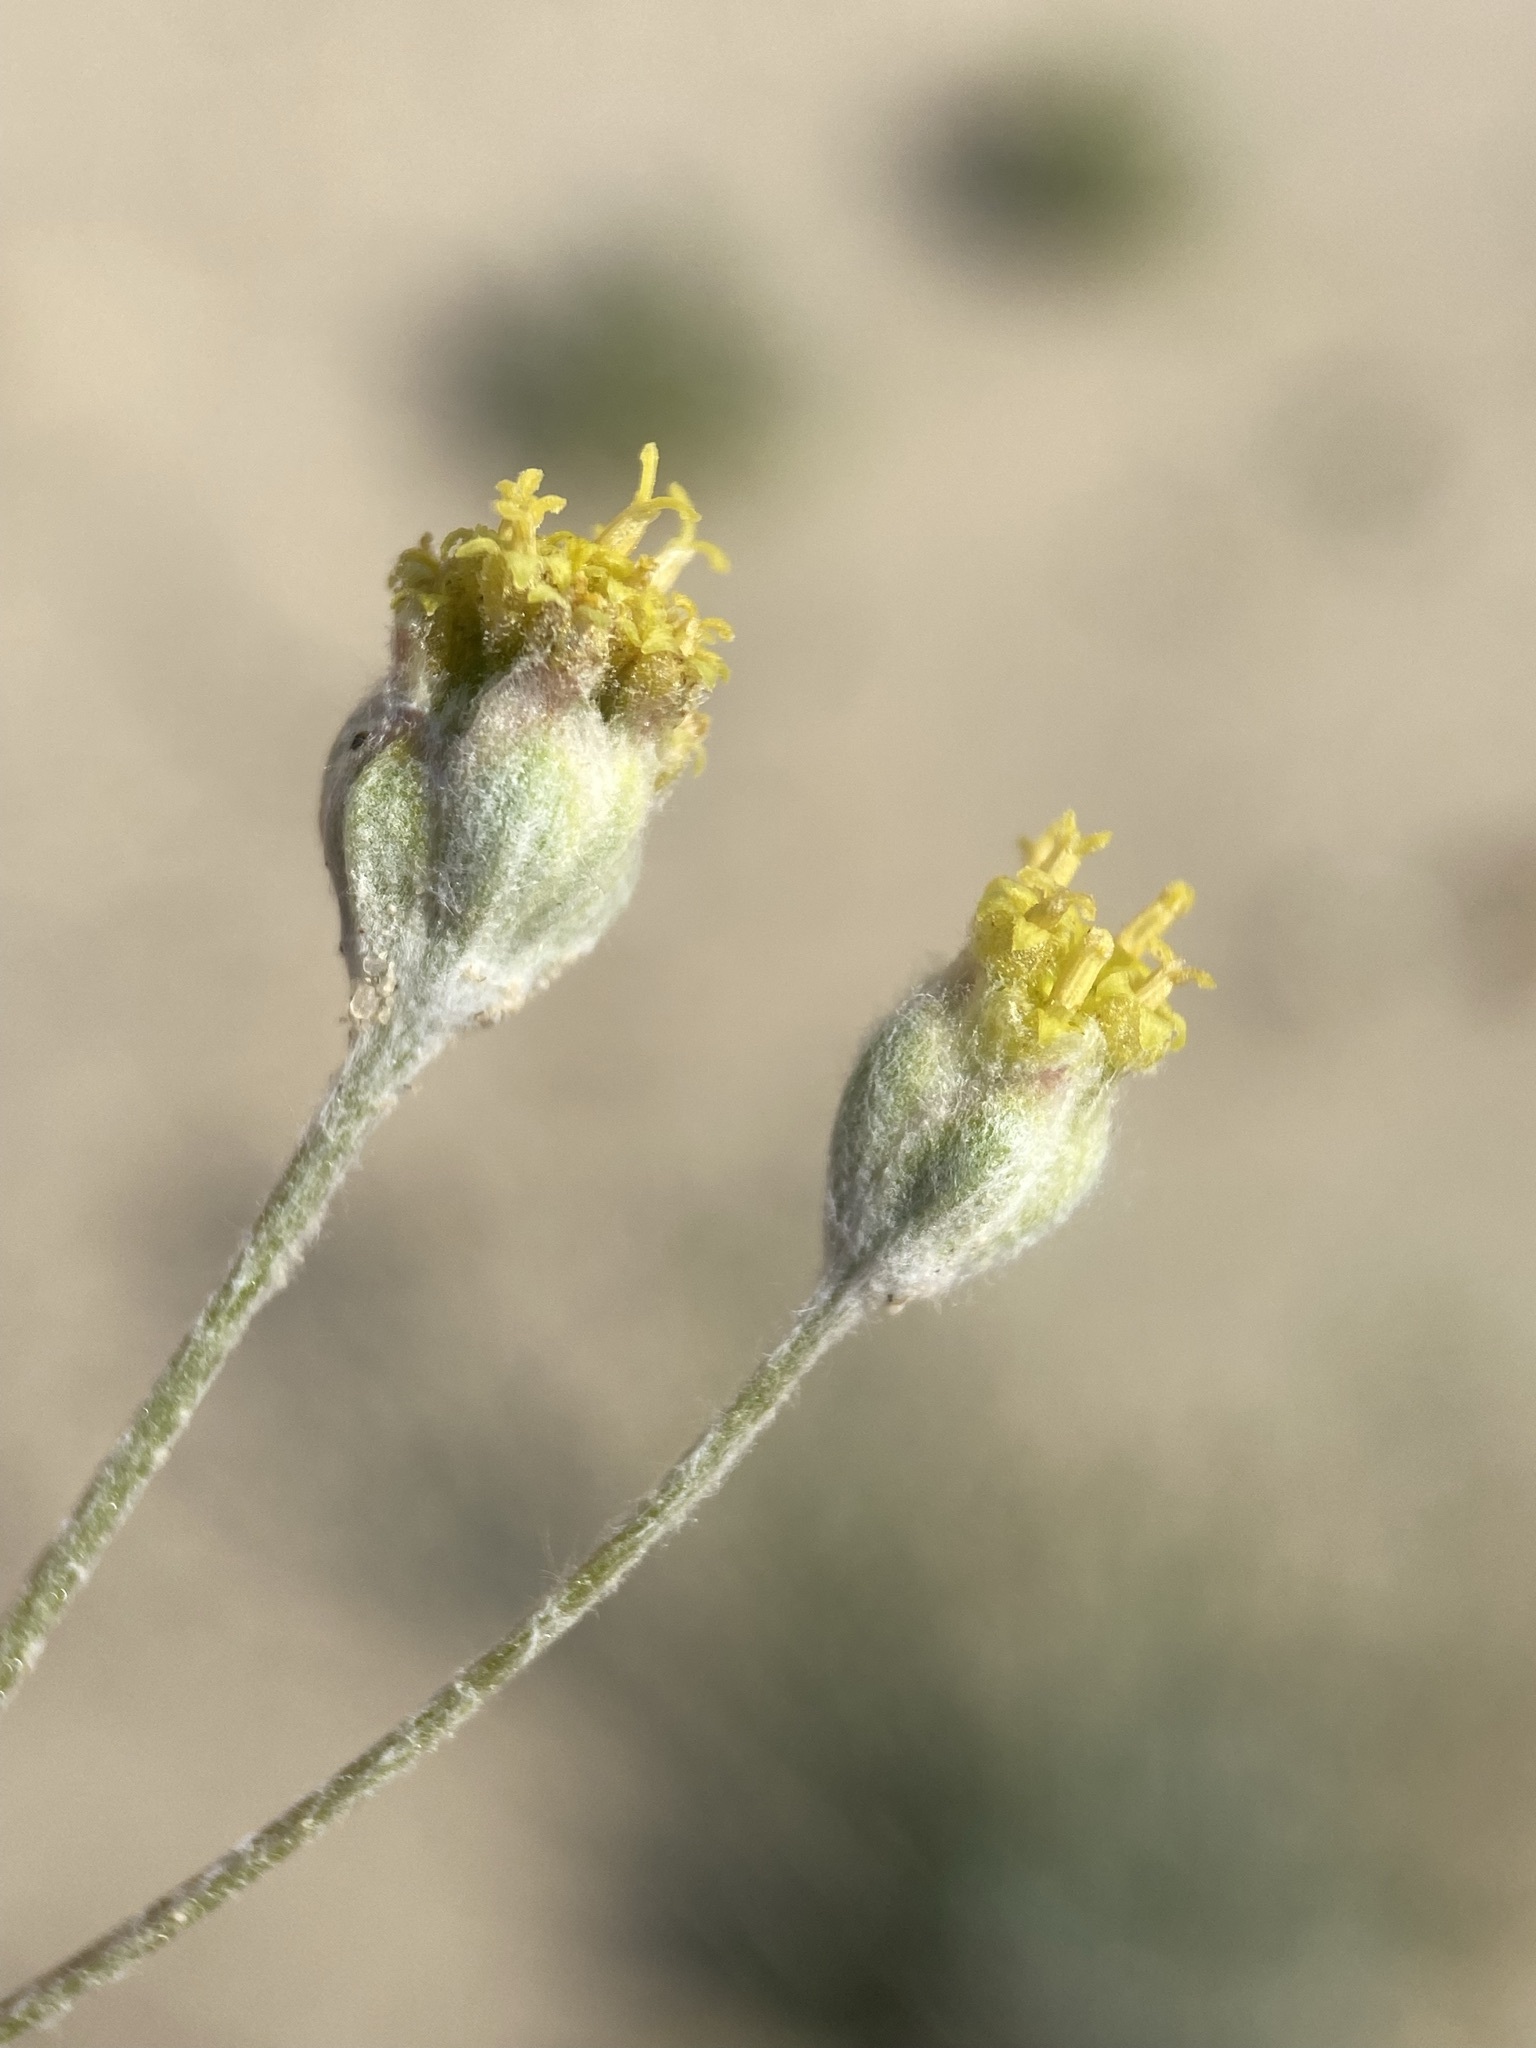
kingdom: Plantae
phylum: Tracheophyta
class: Magnoliopsida
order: Asterales
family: Asteraceae
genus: Hymenopappus
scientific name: Hymenopappus filifolius
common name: Columbia cutleaf
